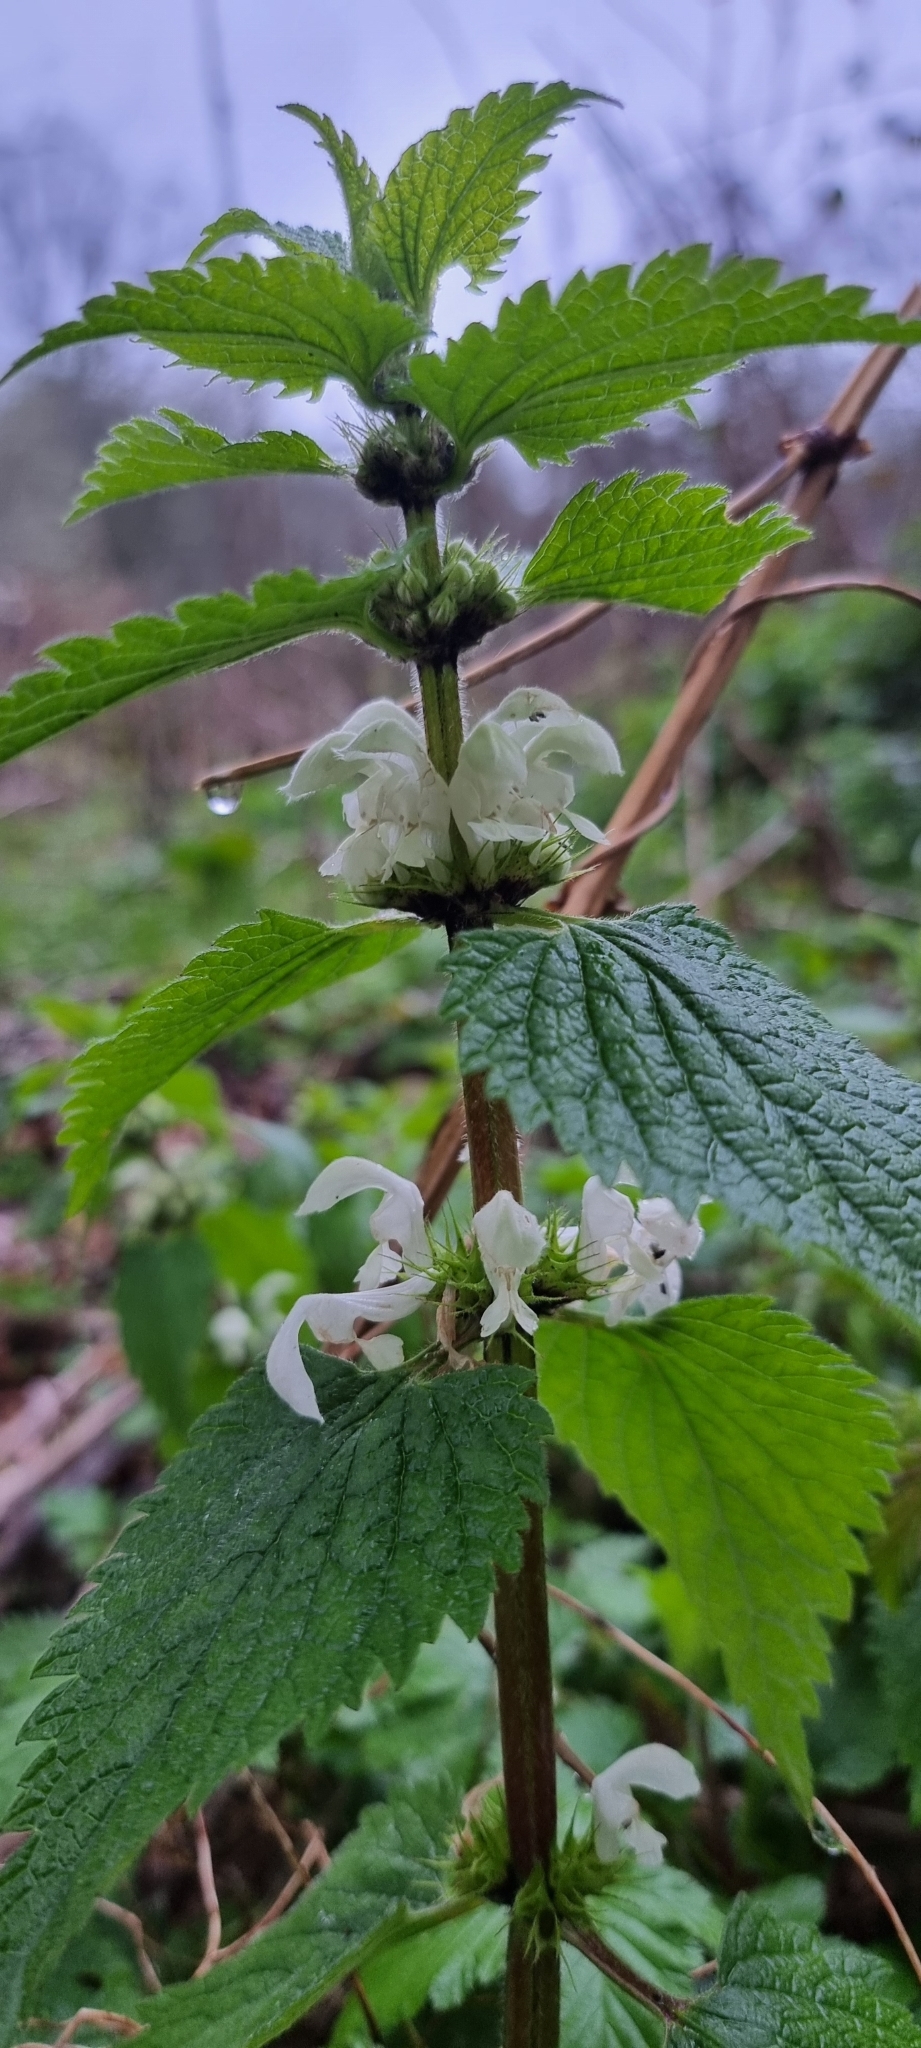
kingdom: Plantae
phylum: Tracheophyta
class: Magnoliopsida
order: Lamiales
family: Lamiaceae
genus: Lamium
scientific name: Lamium album
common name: White dead-nettle
